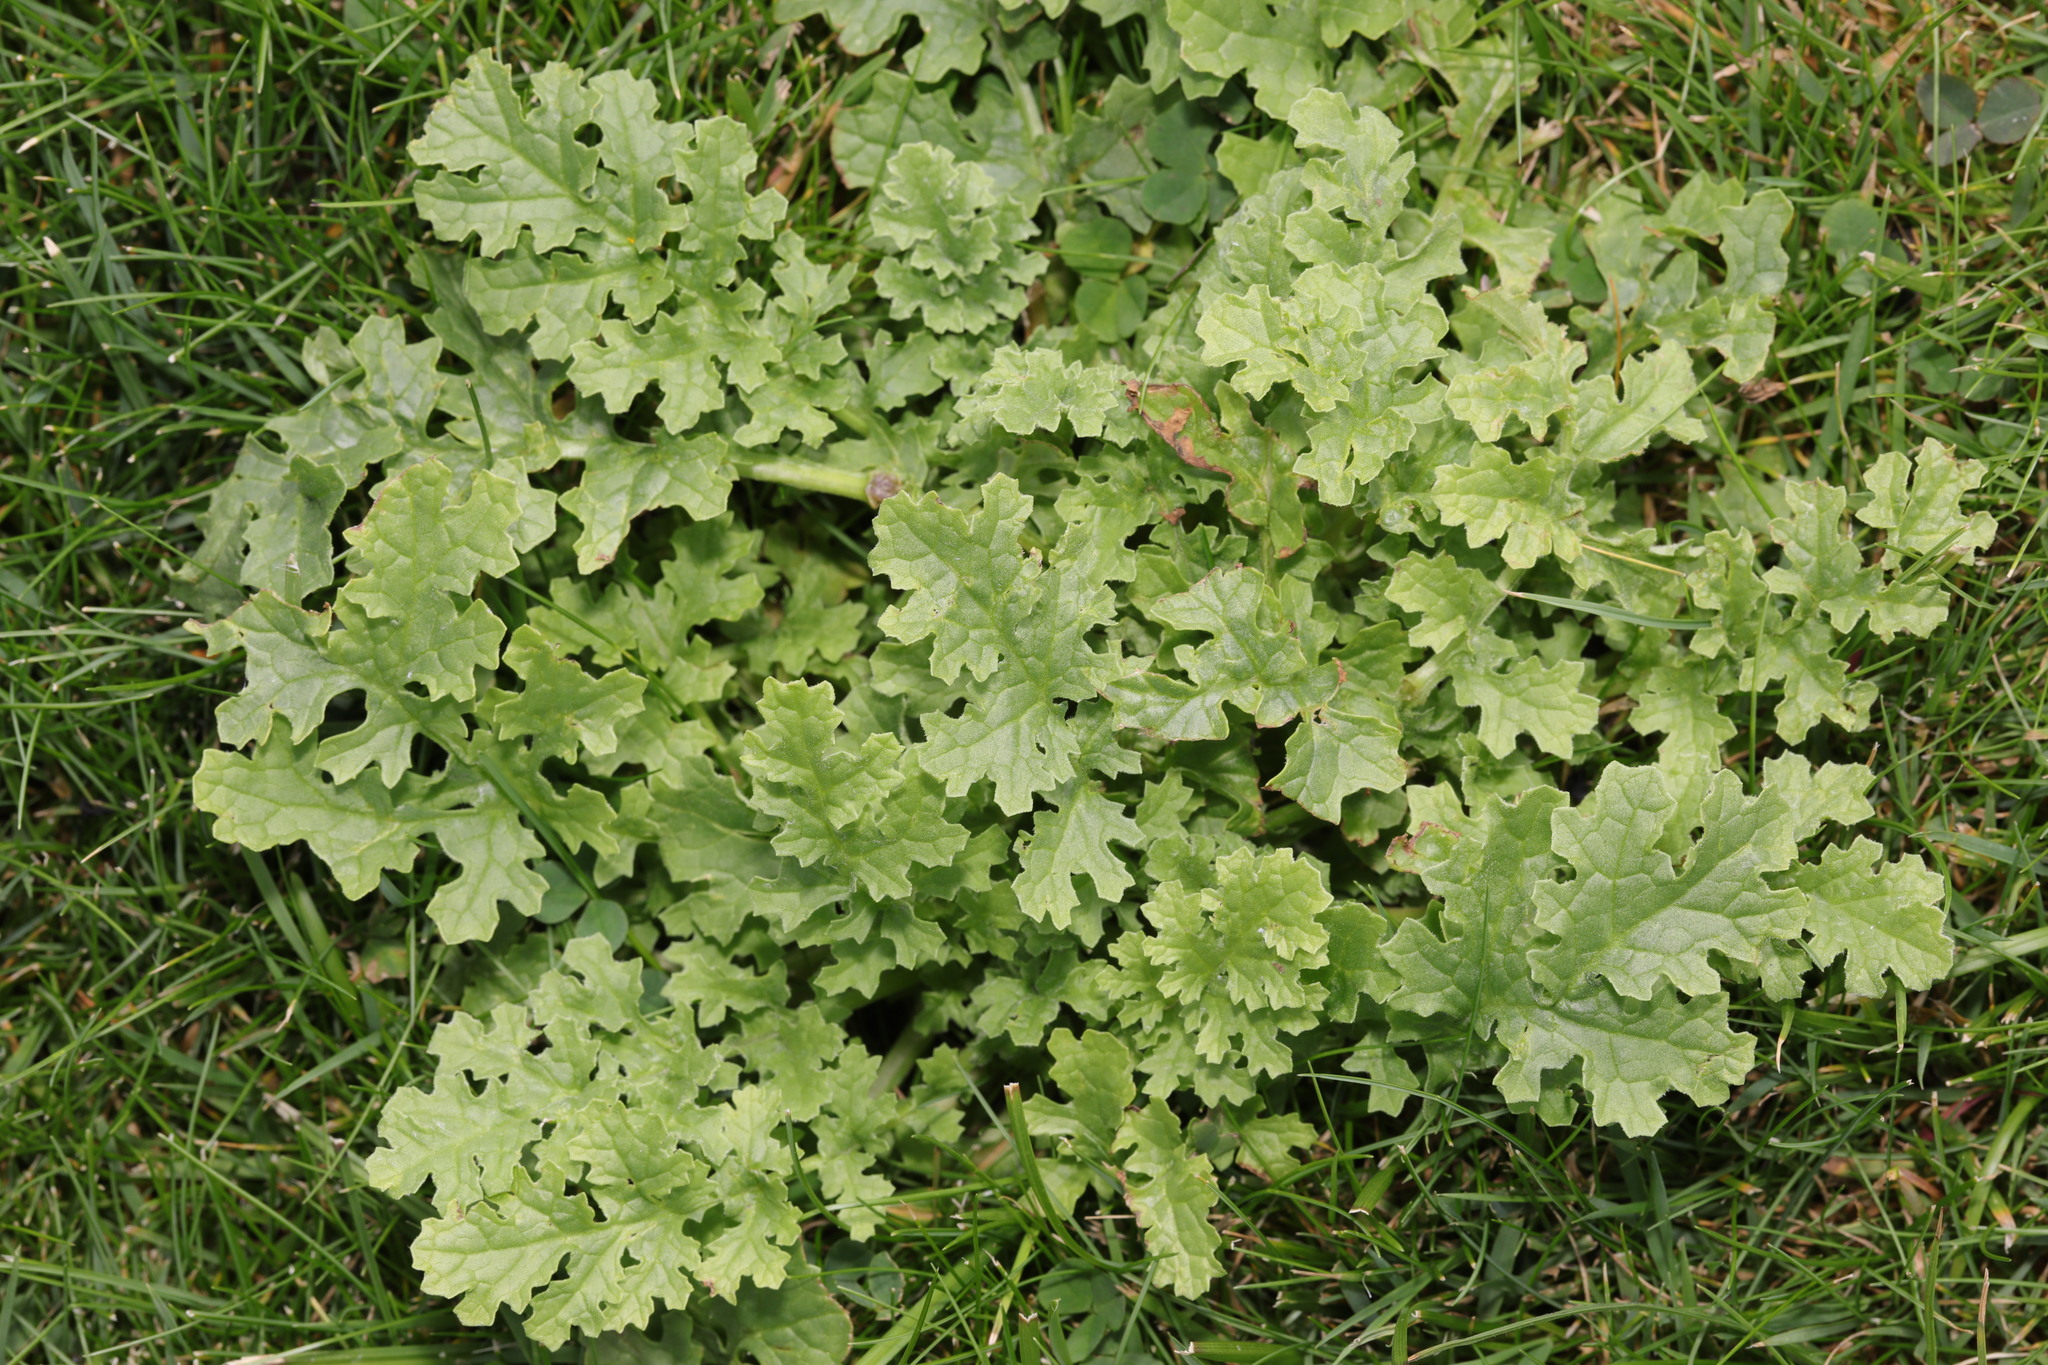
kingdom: Plantae
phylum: Tracheophyta
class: Magnoliopsida
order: Asterales
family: Asteraceae
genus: Jacobaea
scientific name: Jacobaea vulgaris
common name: Stinking willie
